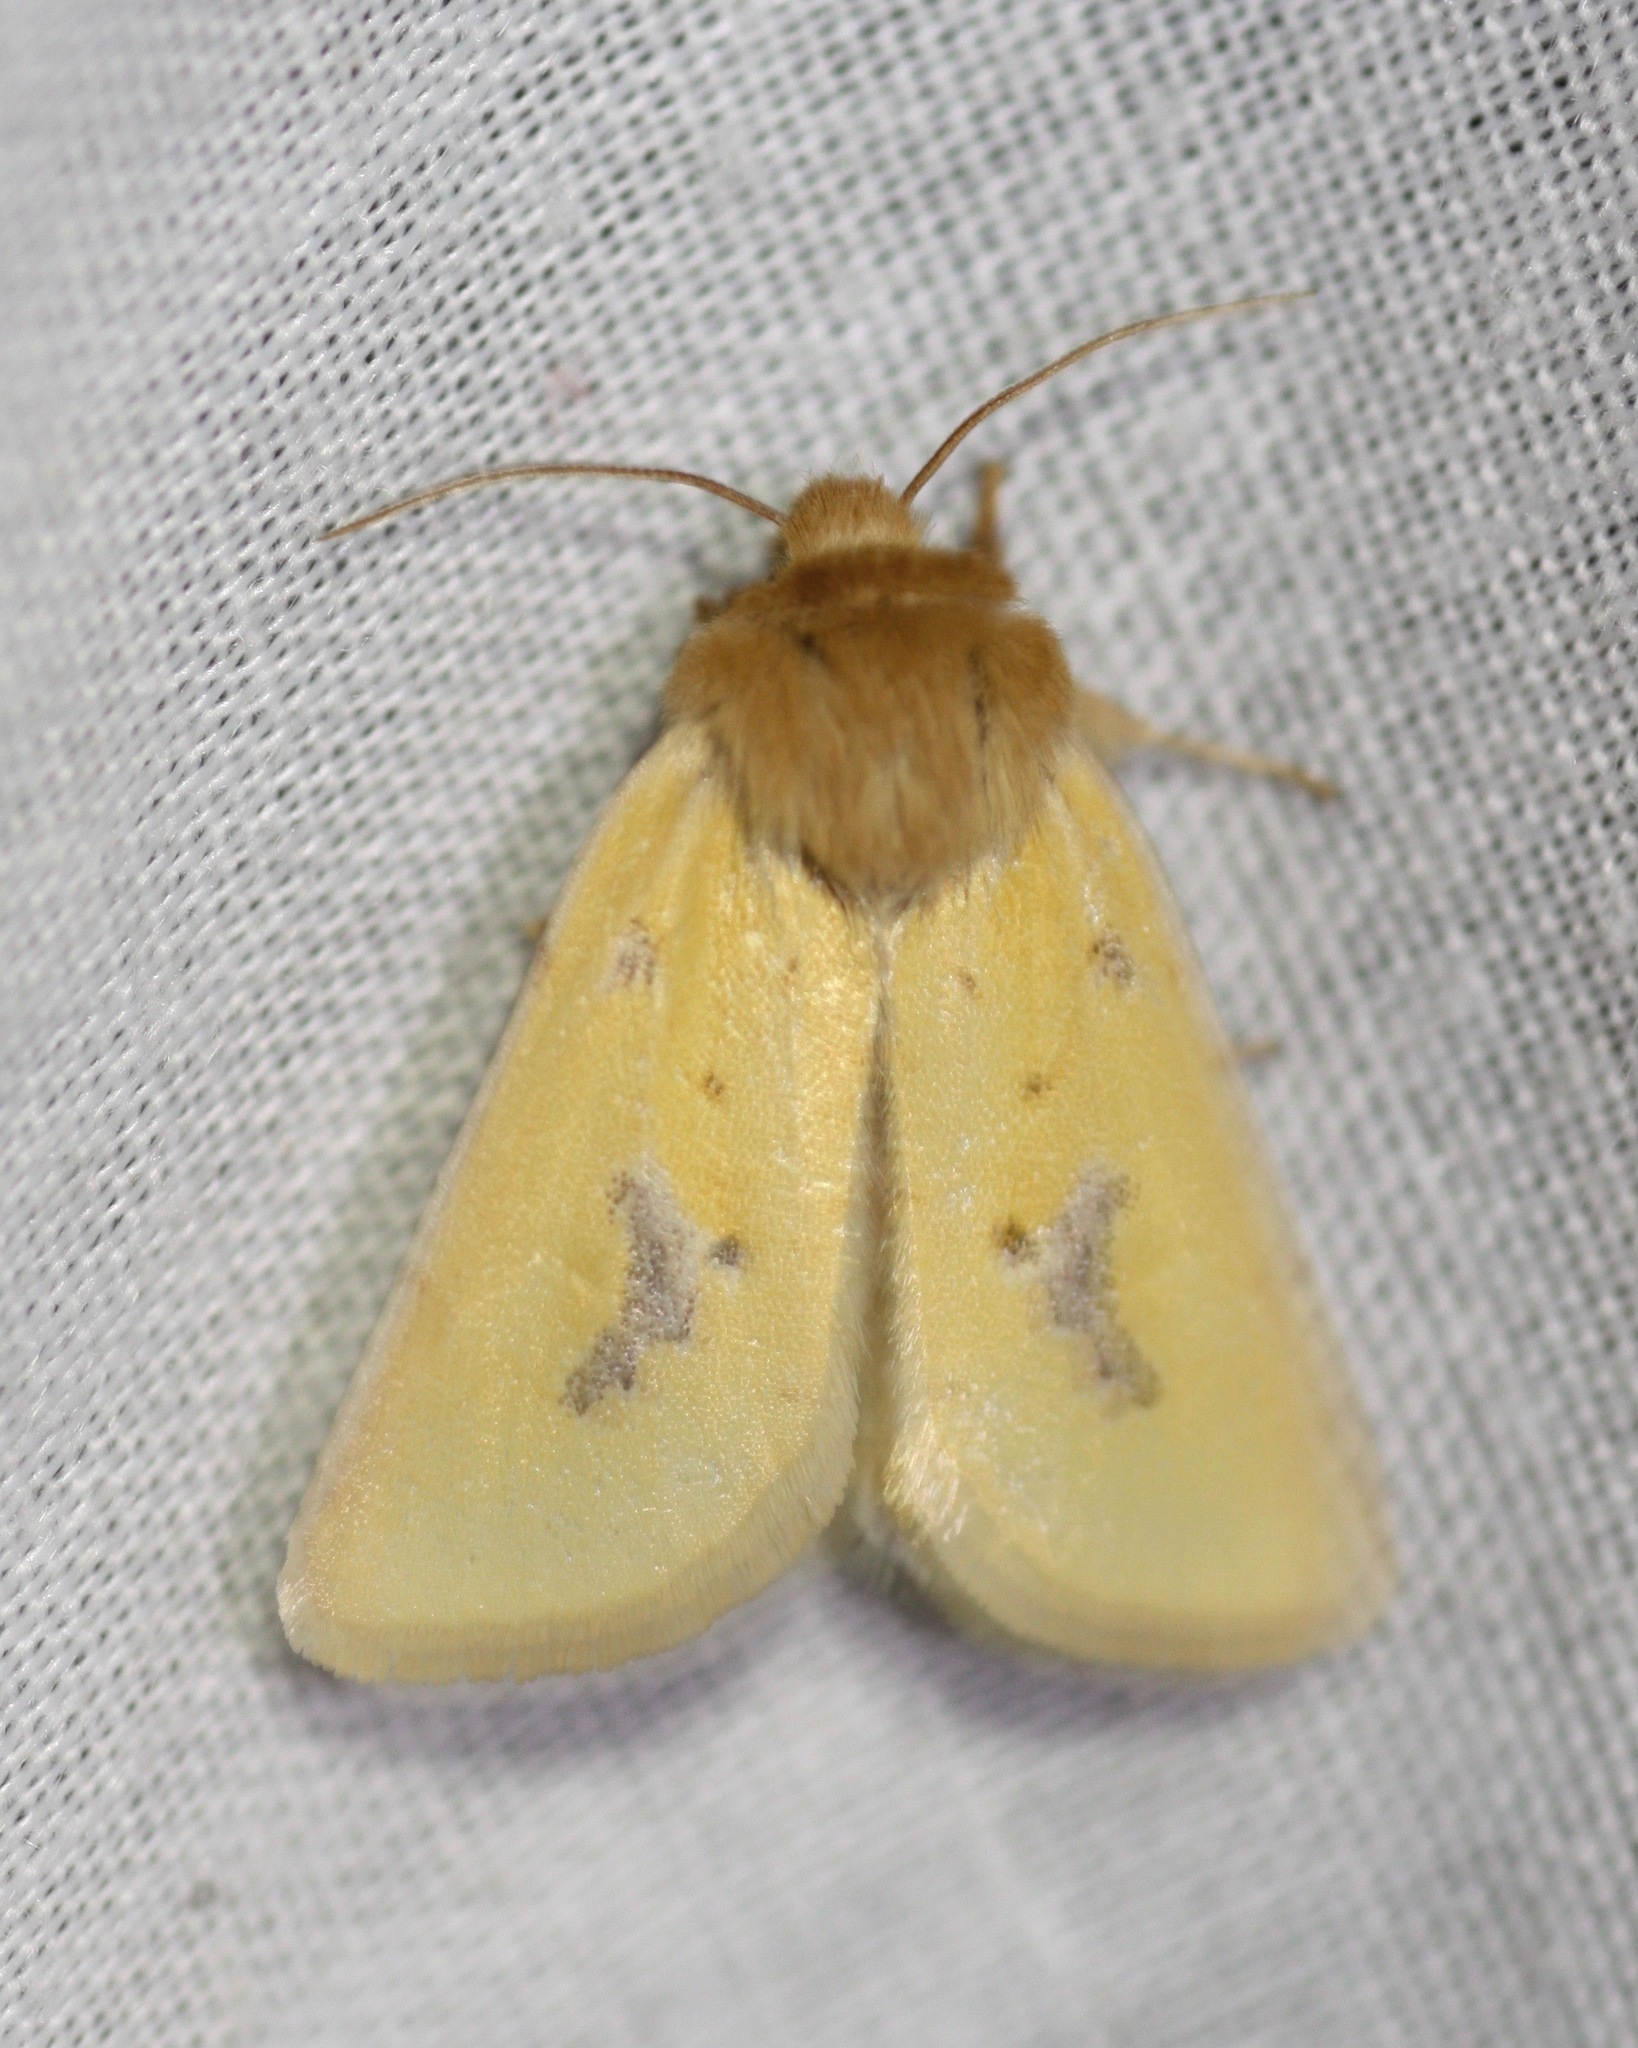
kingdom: Animalia
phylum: Arthropoda
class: Insecta
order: Lepidoptera
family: Noctuidae
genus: Nocloa
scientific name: Nocloa nanata
